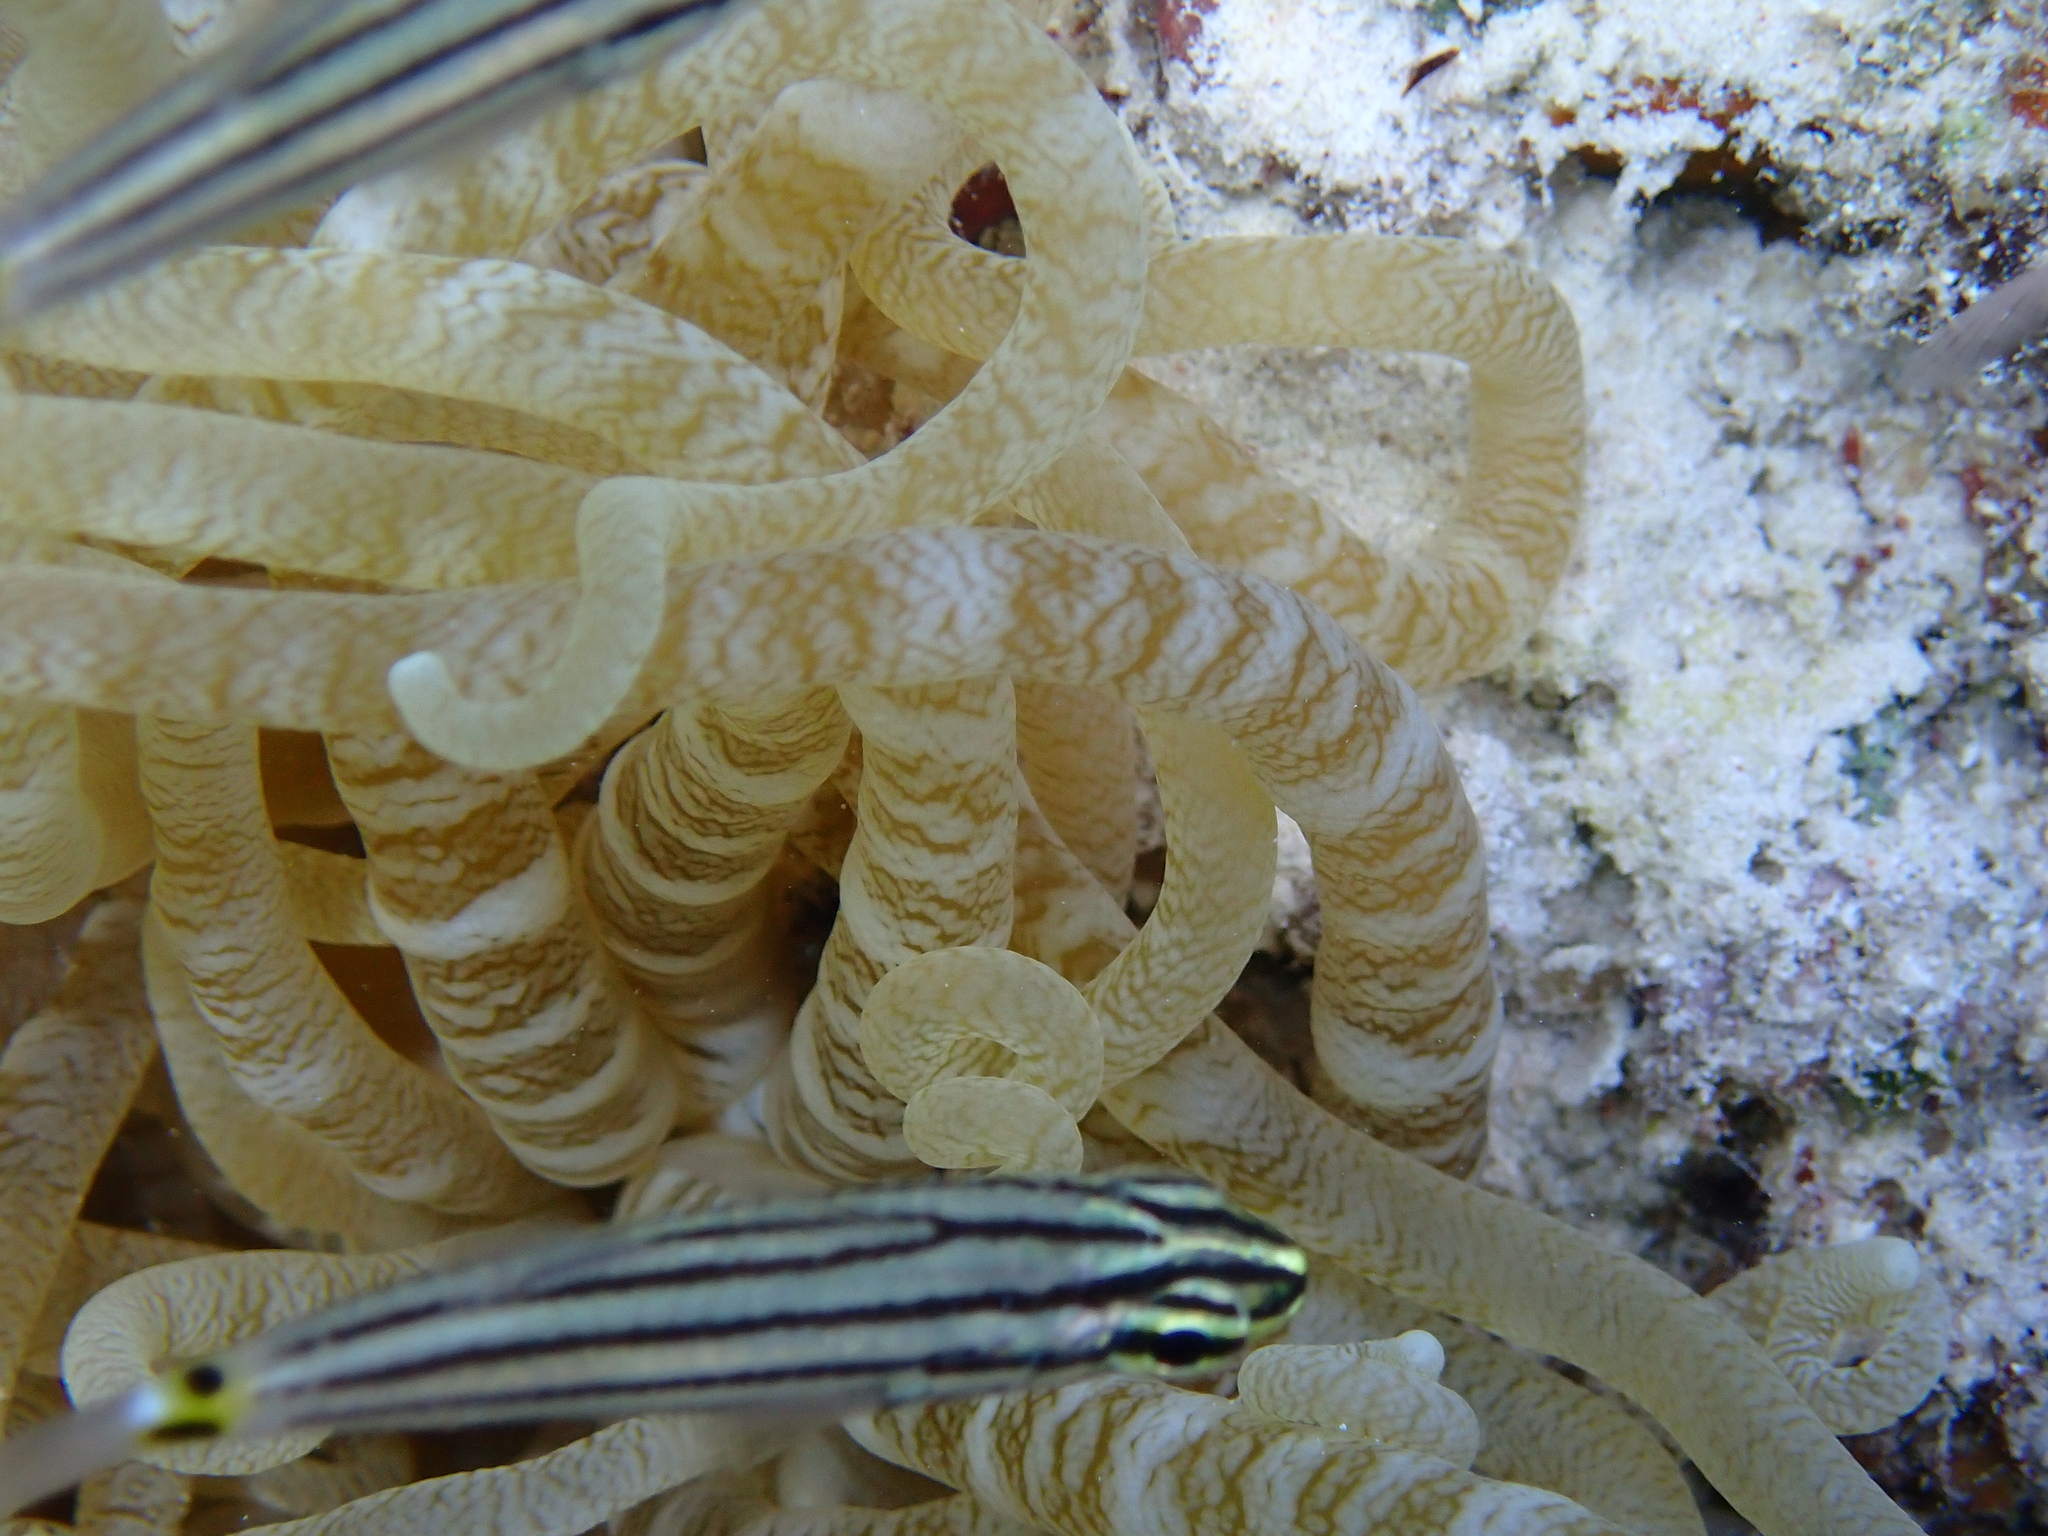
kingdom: Animalia
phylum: Cnidaria
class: Anthozoa
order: Actiniaria
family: Stichodactylidae
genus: Radianthus
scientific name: Radianthus crispa
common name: Leather anemone
